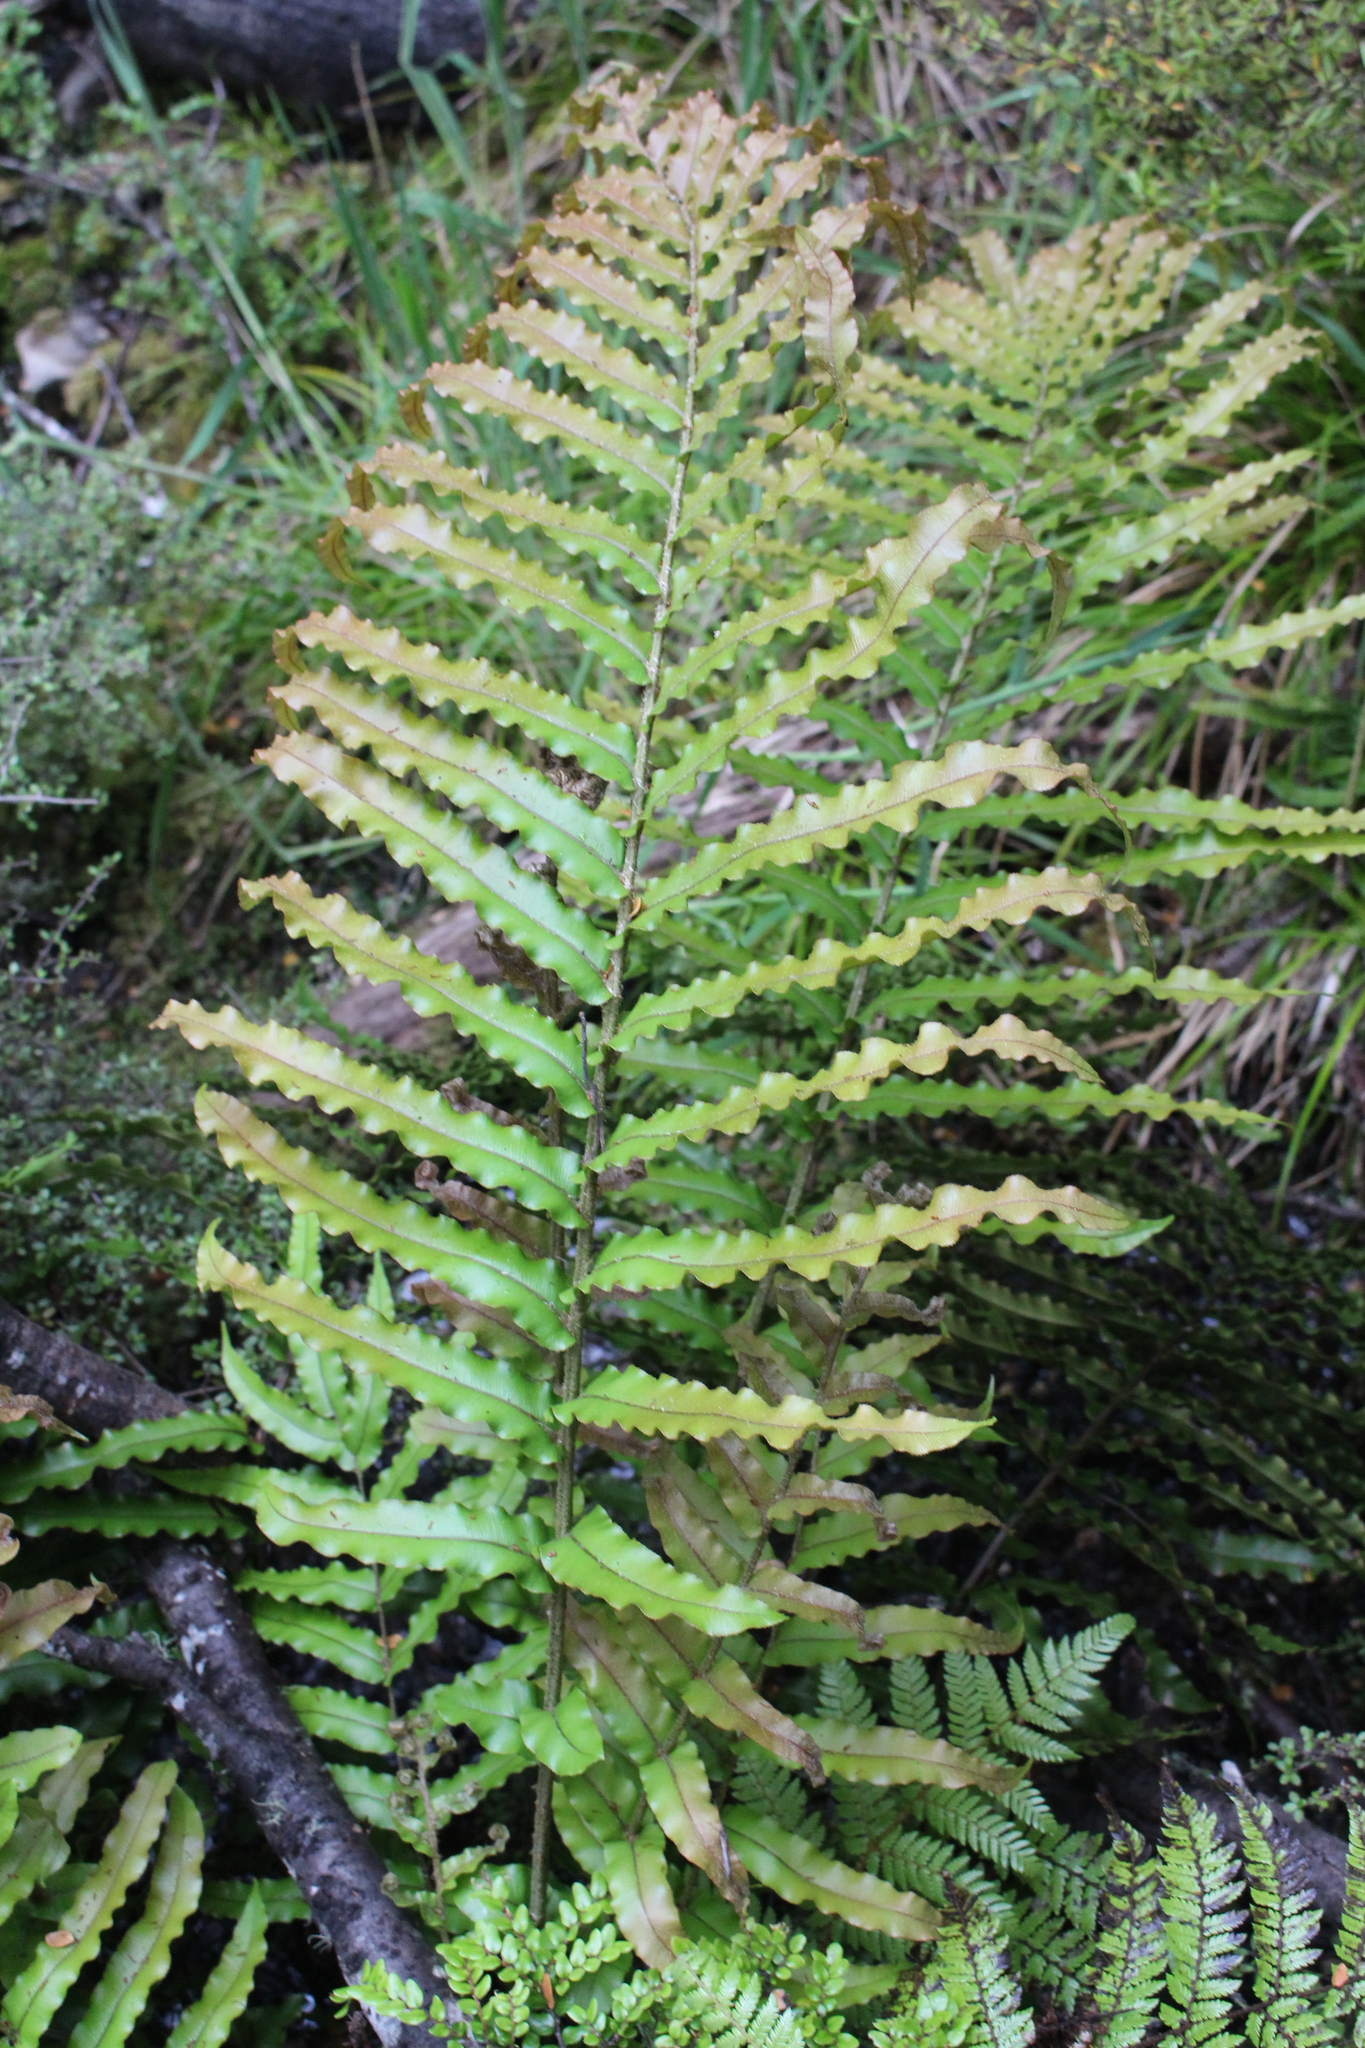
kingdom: Plantae
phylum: Tracheophyta
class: Polypodiopsida
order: Polypodiales
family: Blechnaceae
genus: Parablechnum
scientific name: Parablechnum novae-zelandiae
